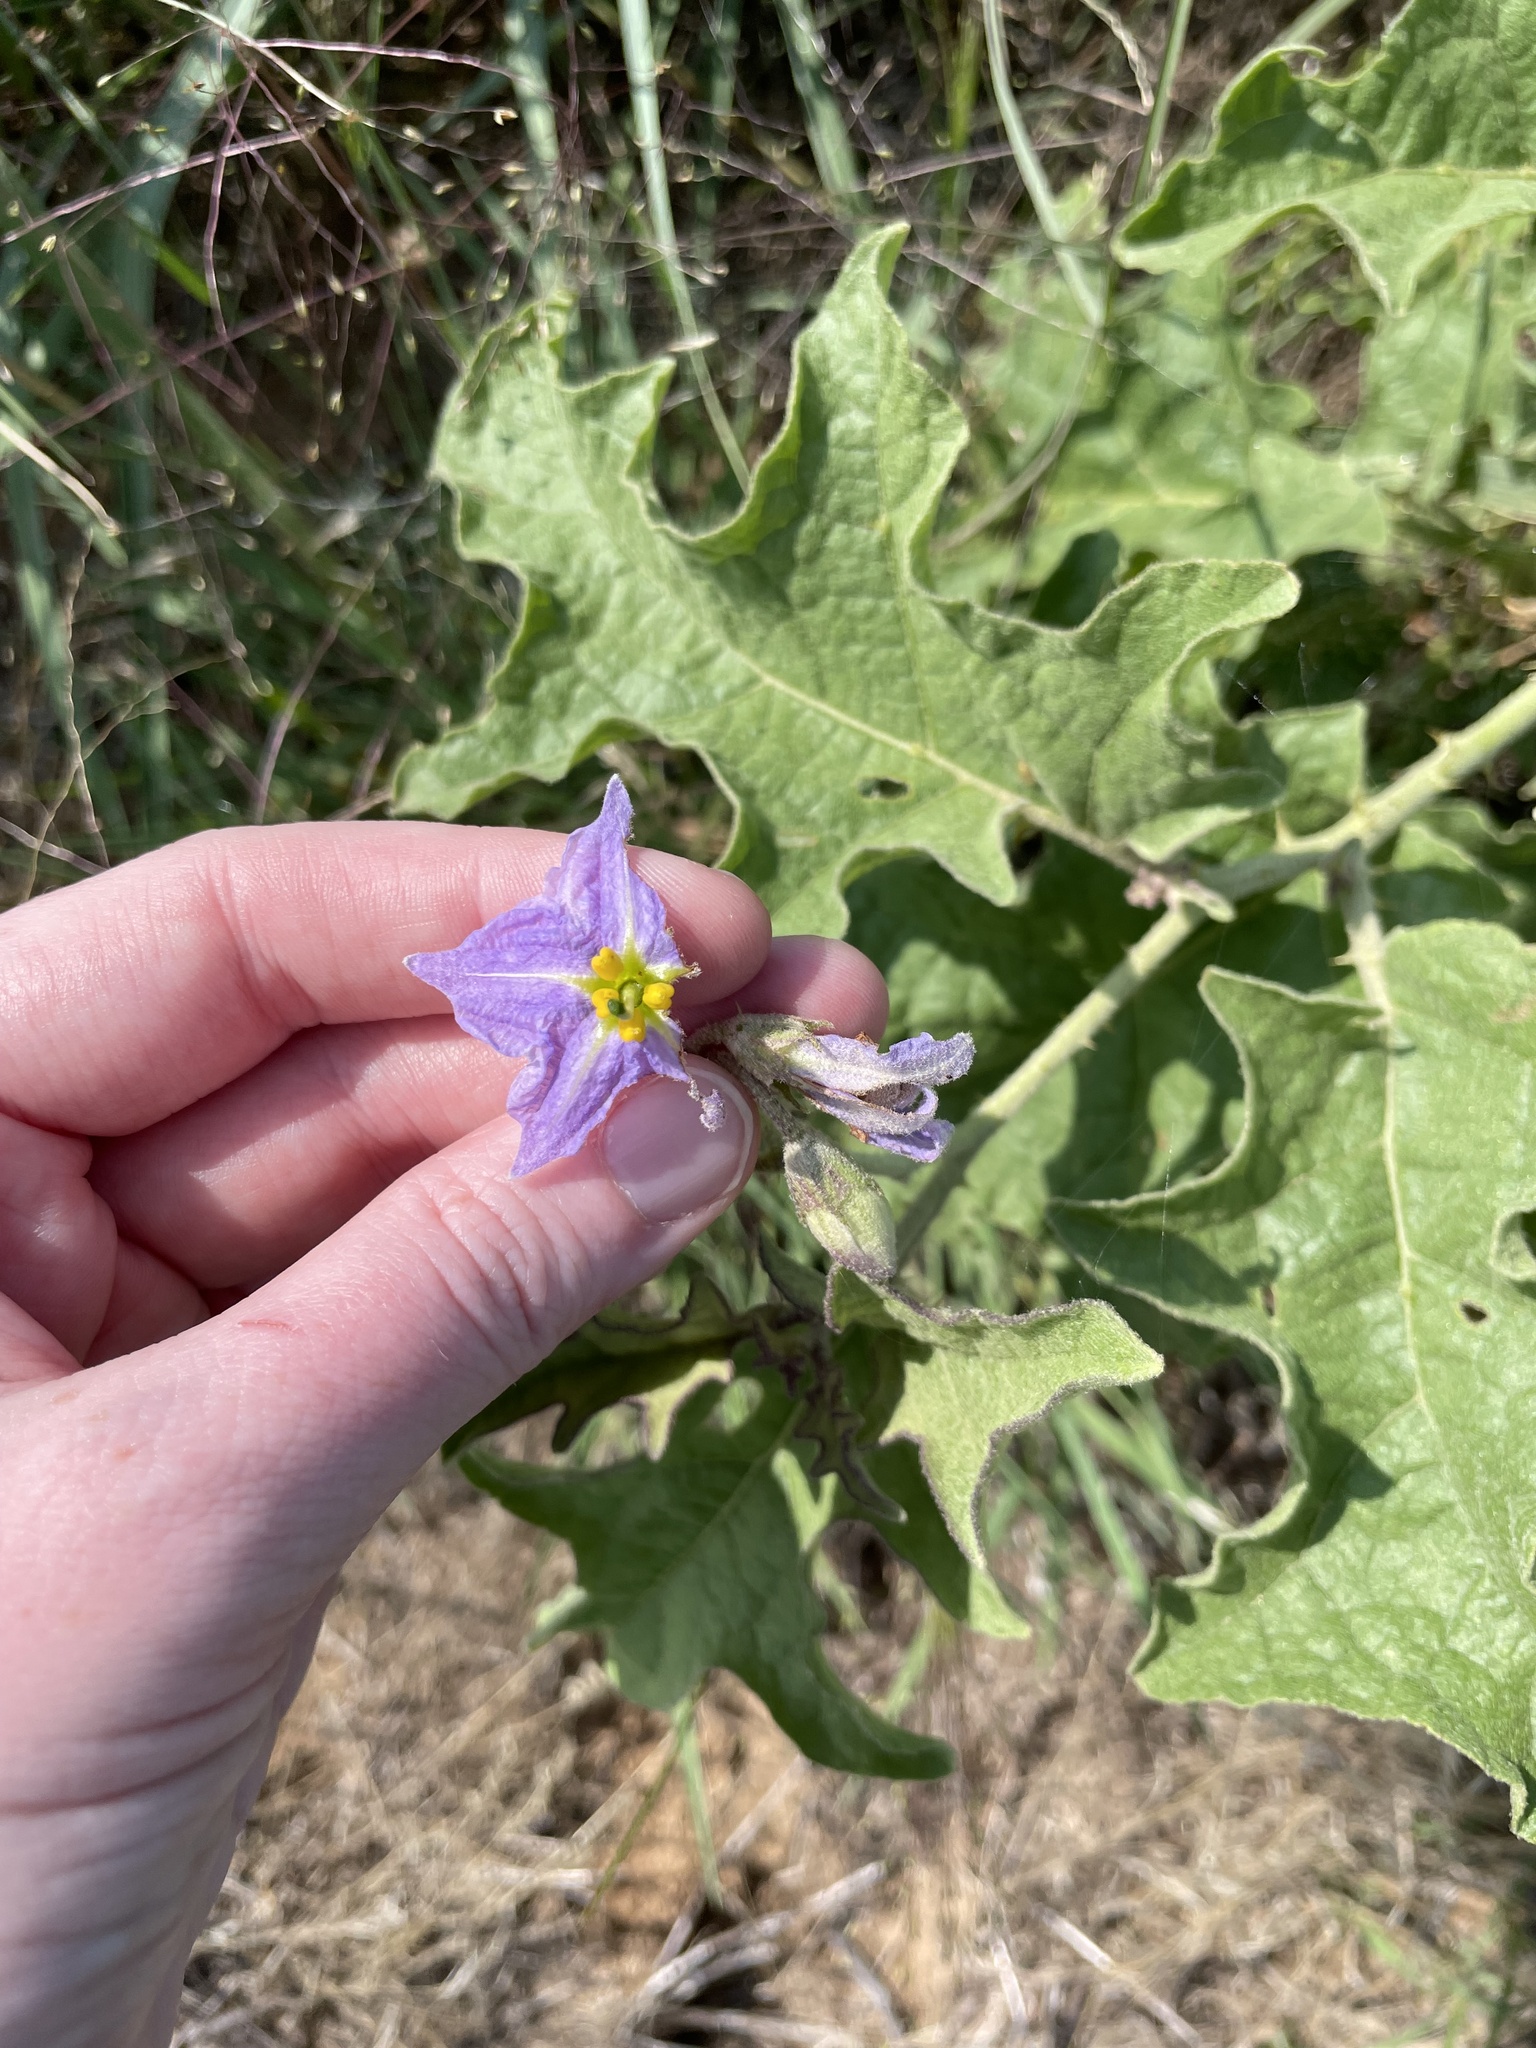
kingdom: Plantae
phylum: Tracheophyta
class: Magnoliopsida
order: Solanales
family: Solanaceae
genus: Solanum
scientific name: Solanum dimidiatum
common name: Carolina horse-nettle
